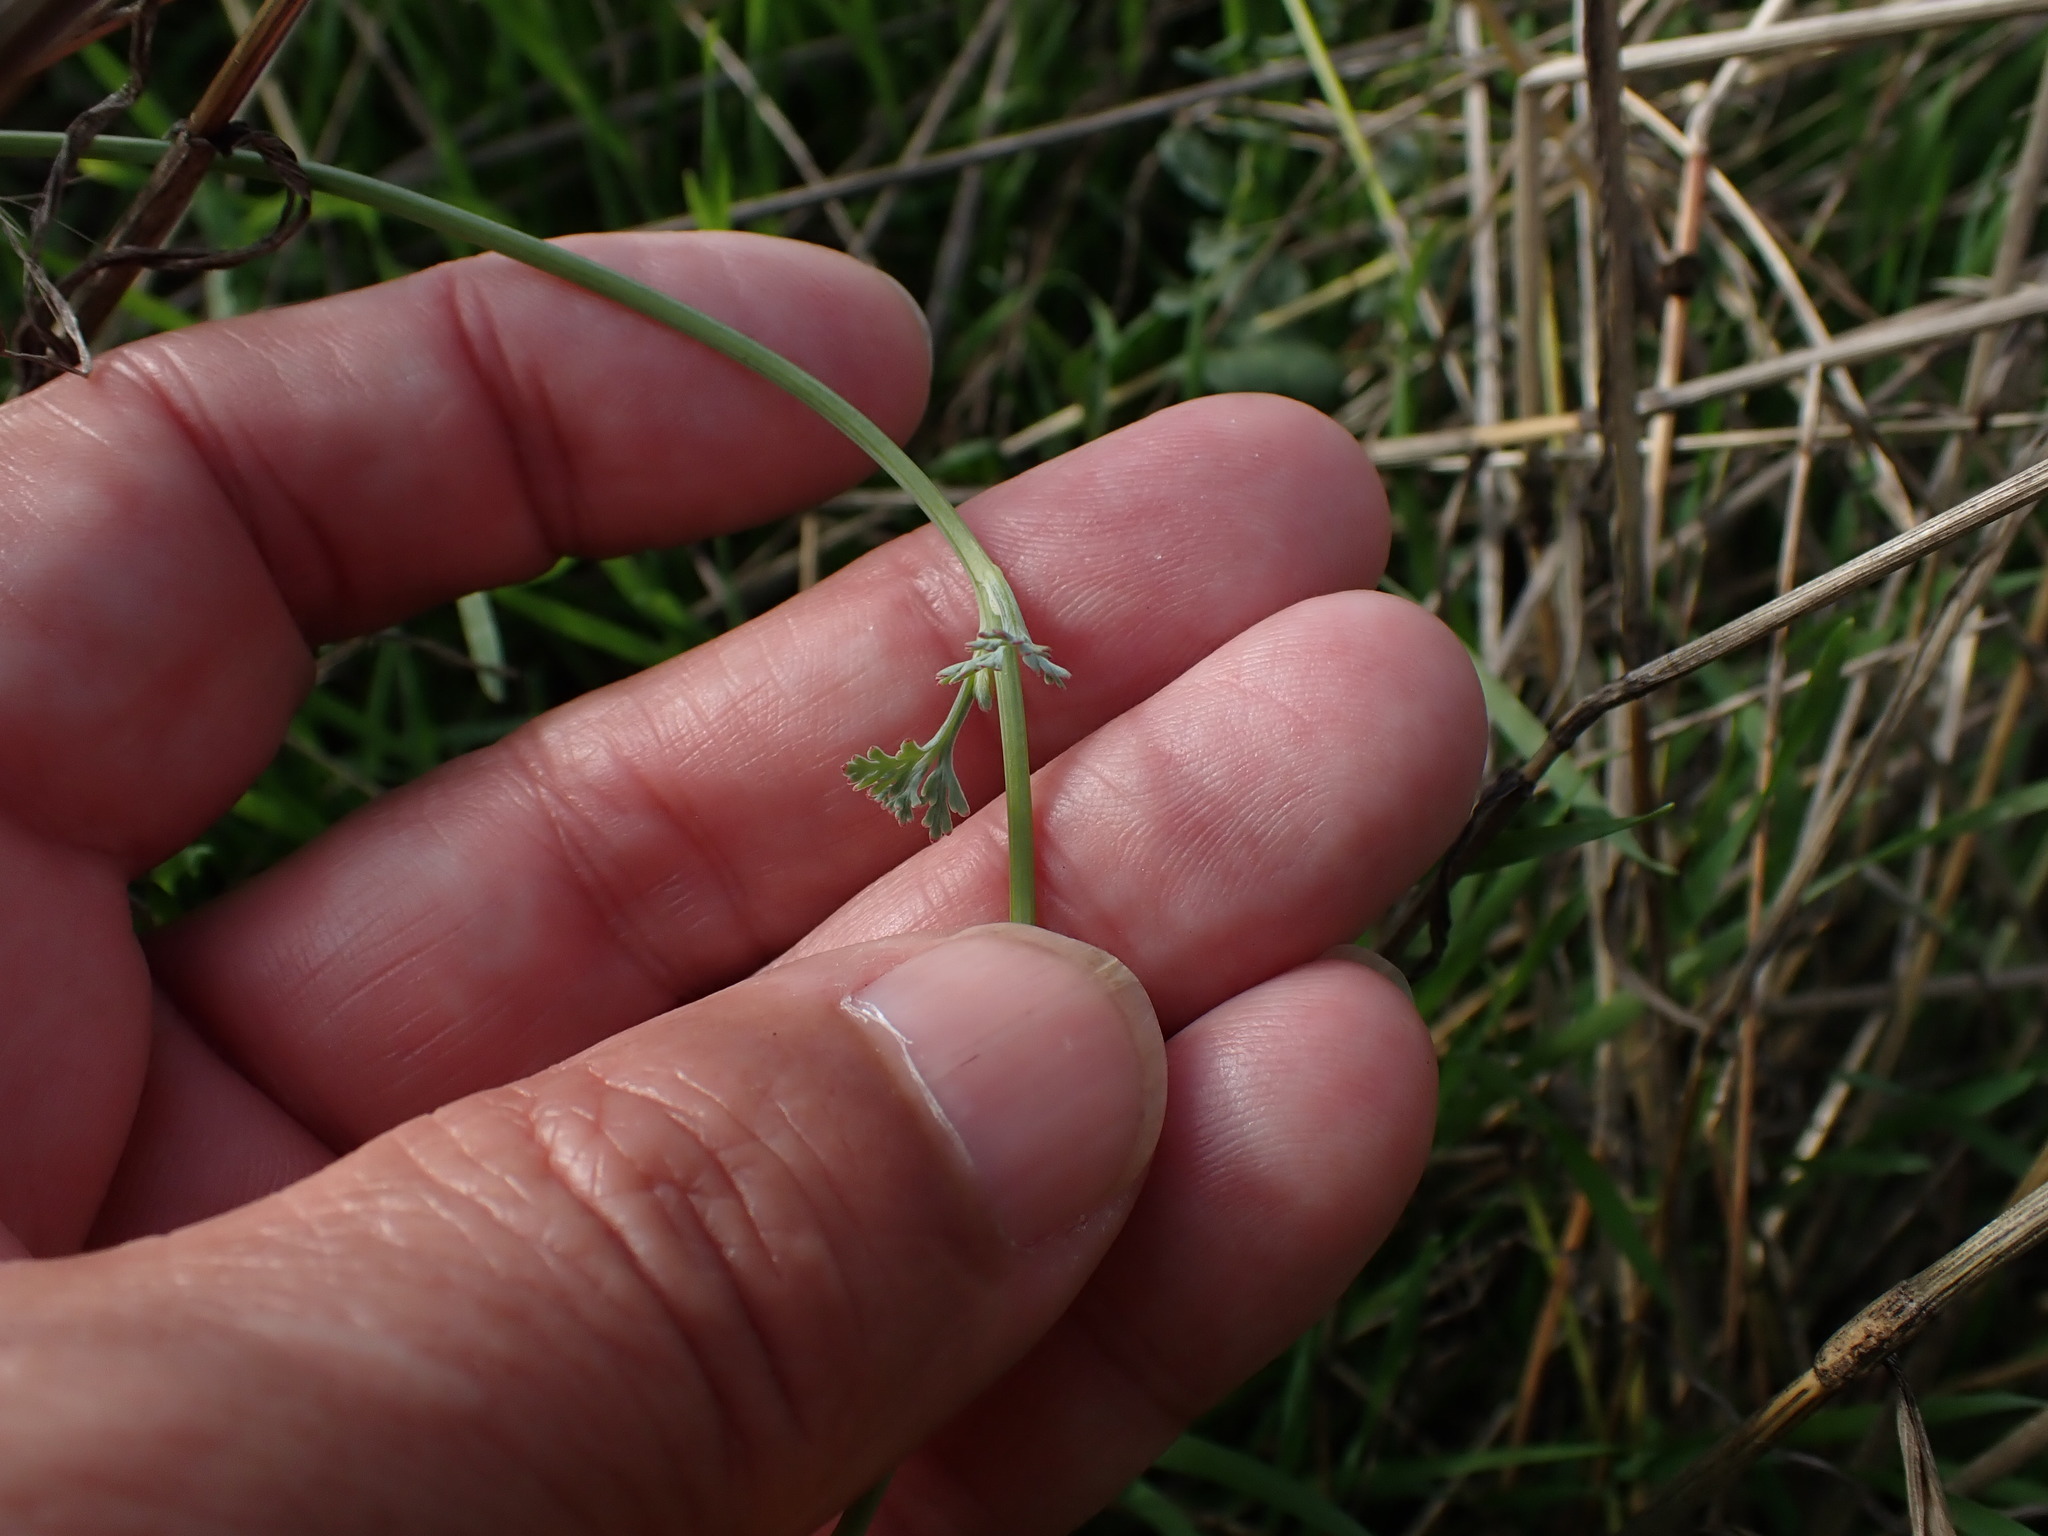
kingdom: Plantae
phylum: Tracheophyta
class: Magnoliopsida
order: Ranunculales
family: Papaveraceae
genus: Eschscholzia
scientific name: Eschscholzia californica
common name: California poppy
